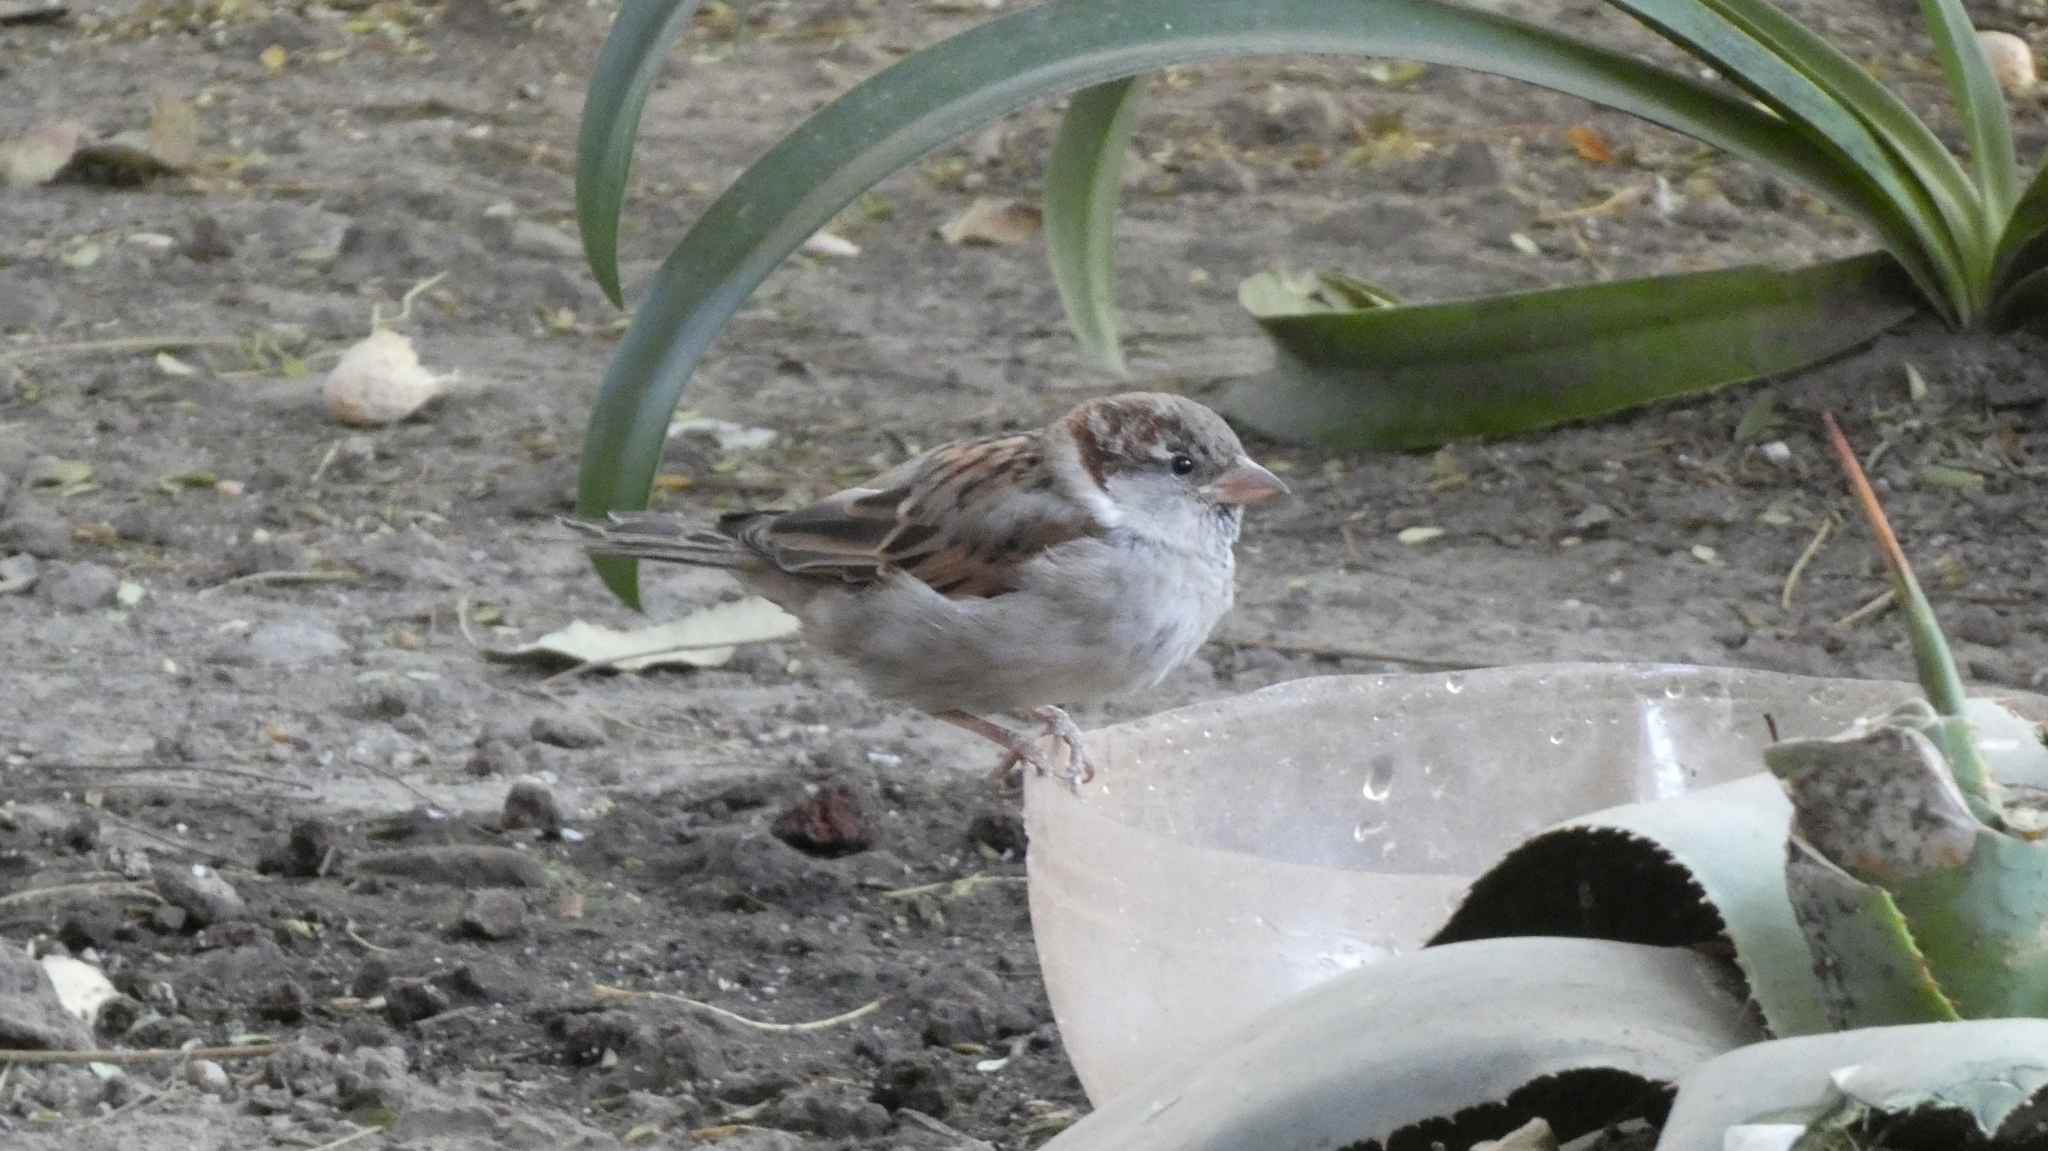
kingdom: Animalia
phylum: Chordata
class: Aves
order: Passeriformes
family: Passeridae
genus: Passer
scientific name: Passer domesticus
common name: House sparrow
